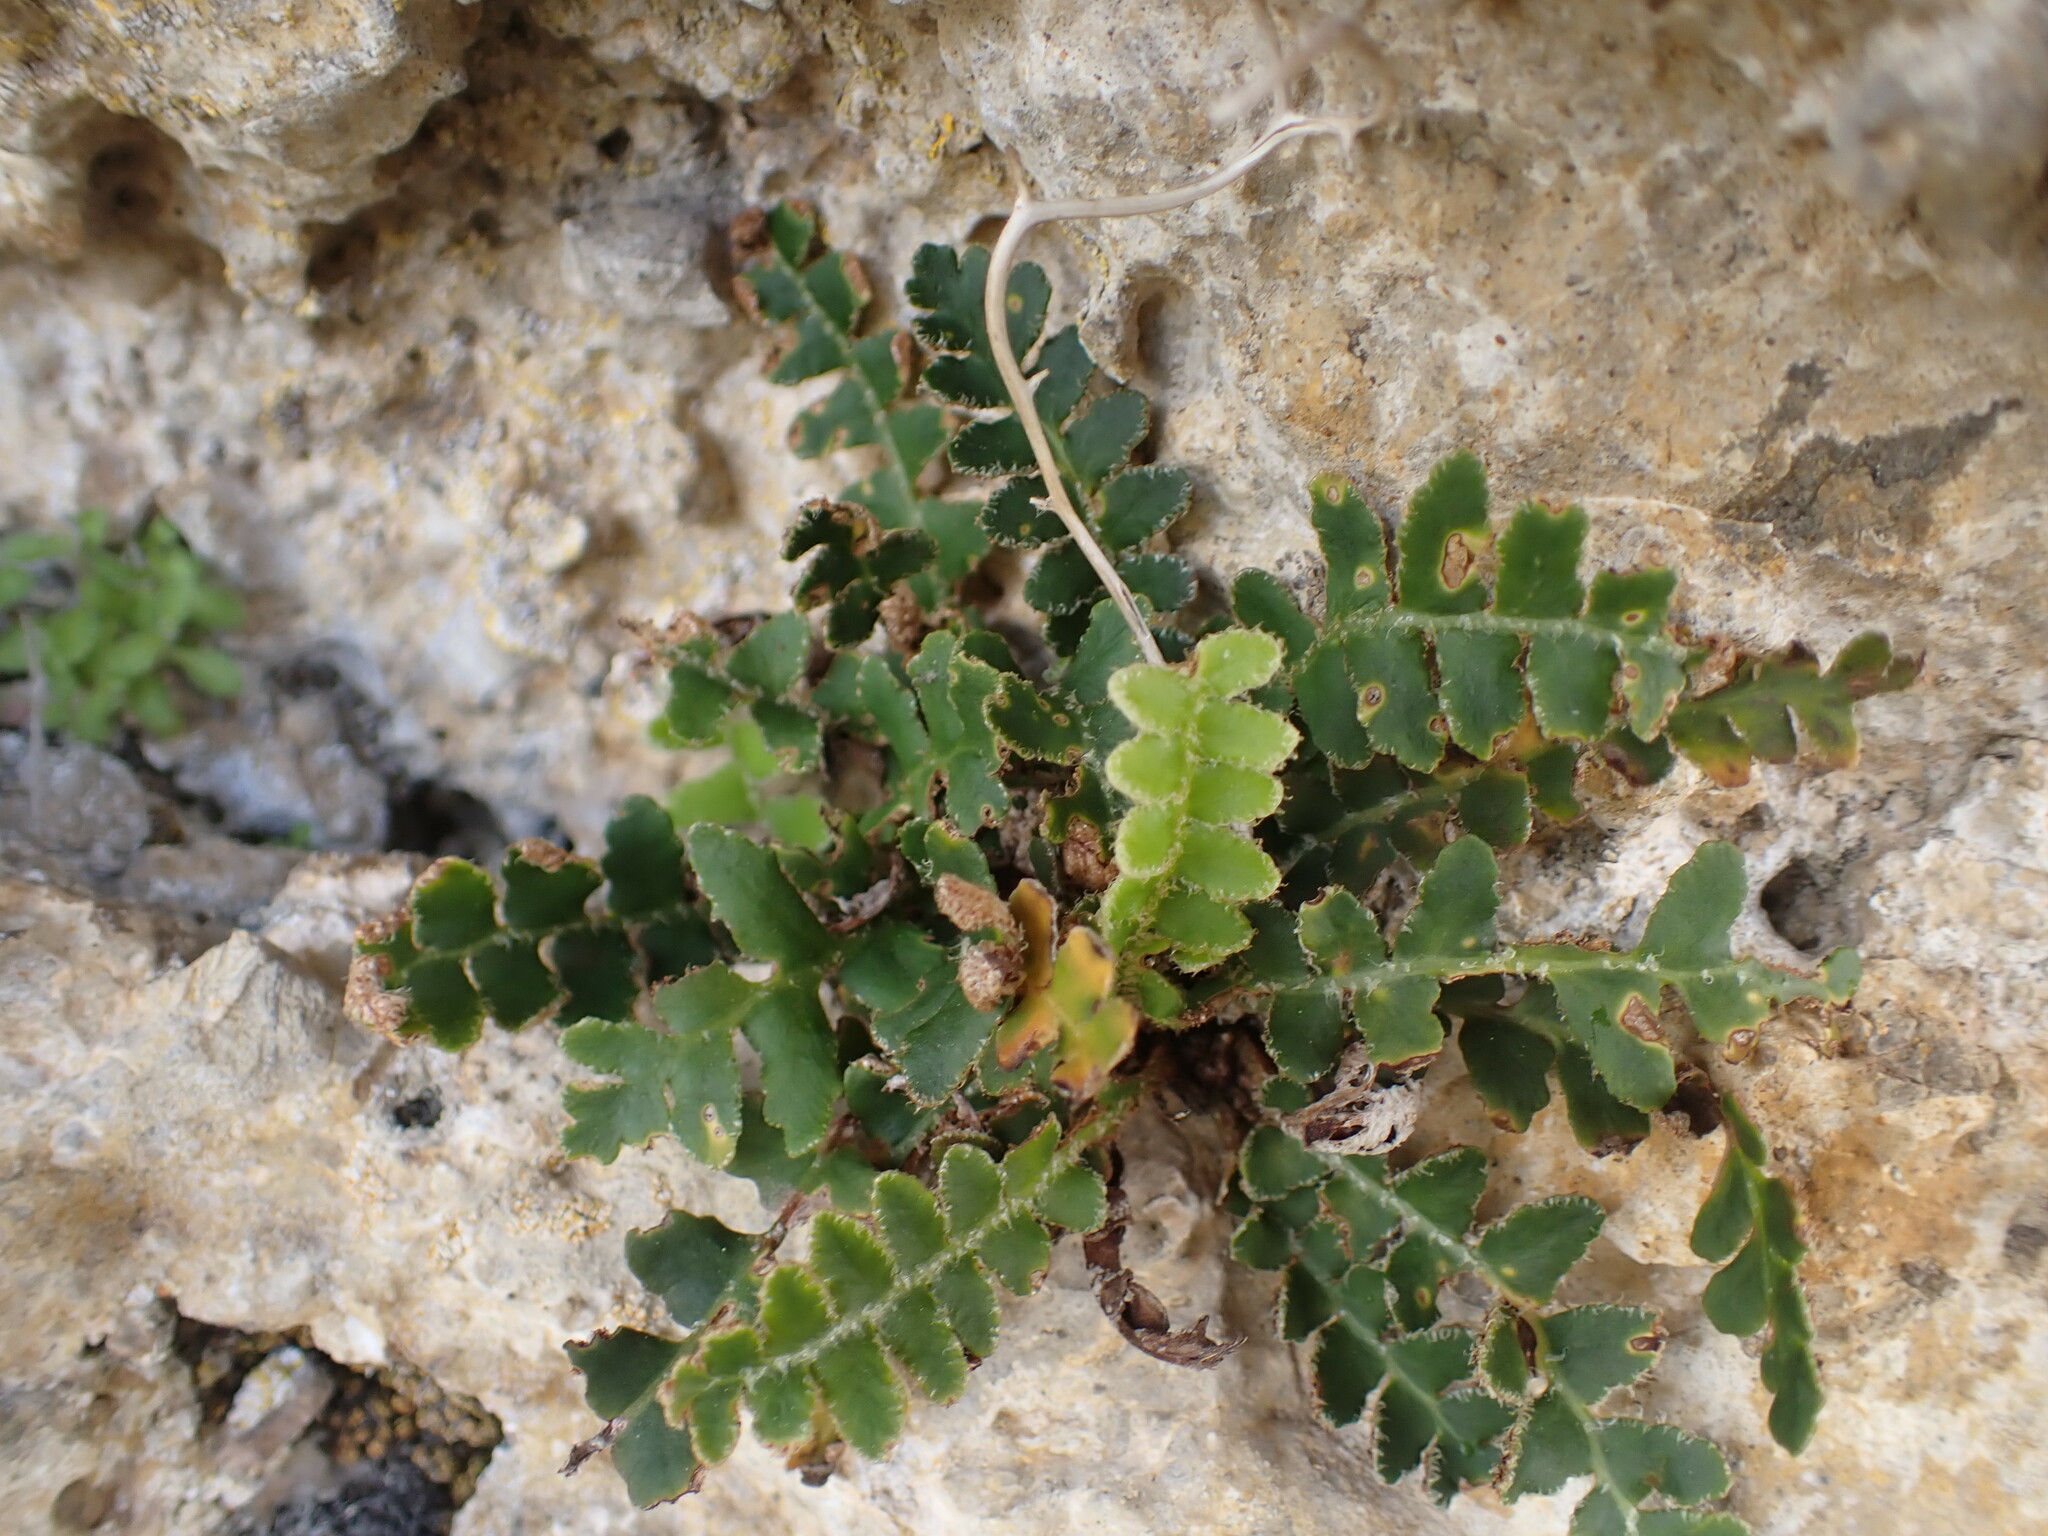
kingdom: Plantae
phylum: Tracheophyta
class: Polypodiopsida
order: Polypodiales
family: Aspleniaceae
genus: Asplenium
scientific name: Asplenium ceterach
